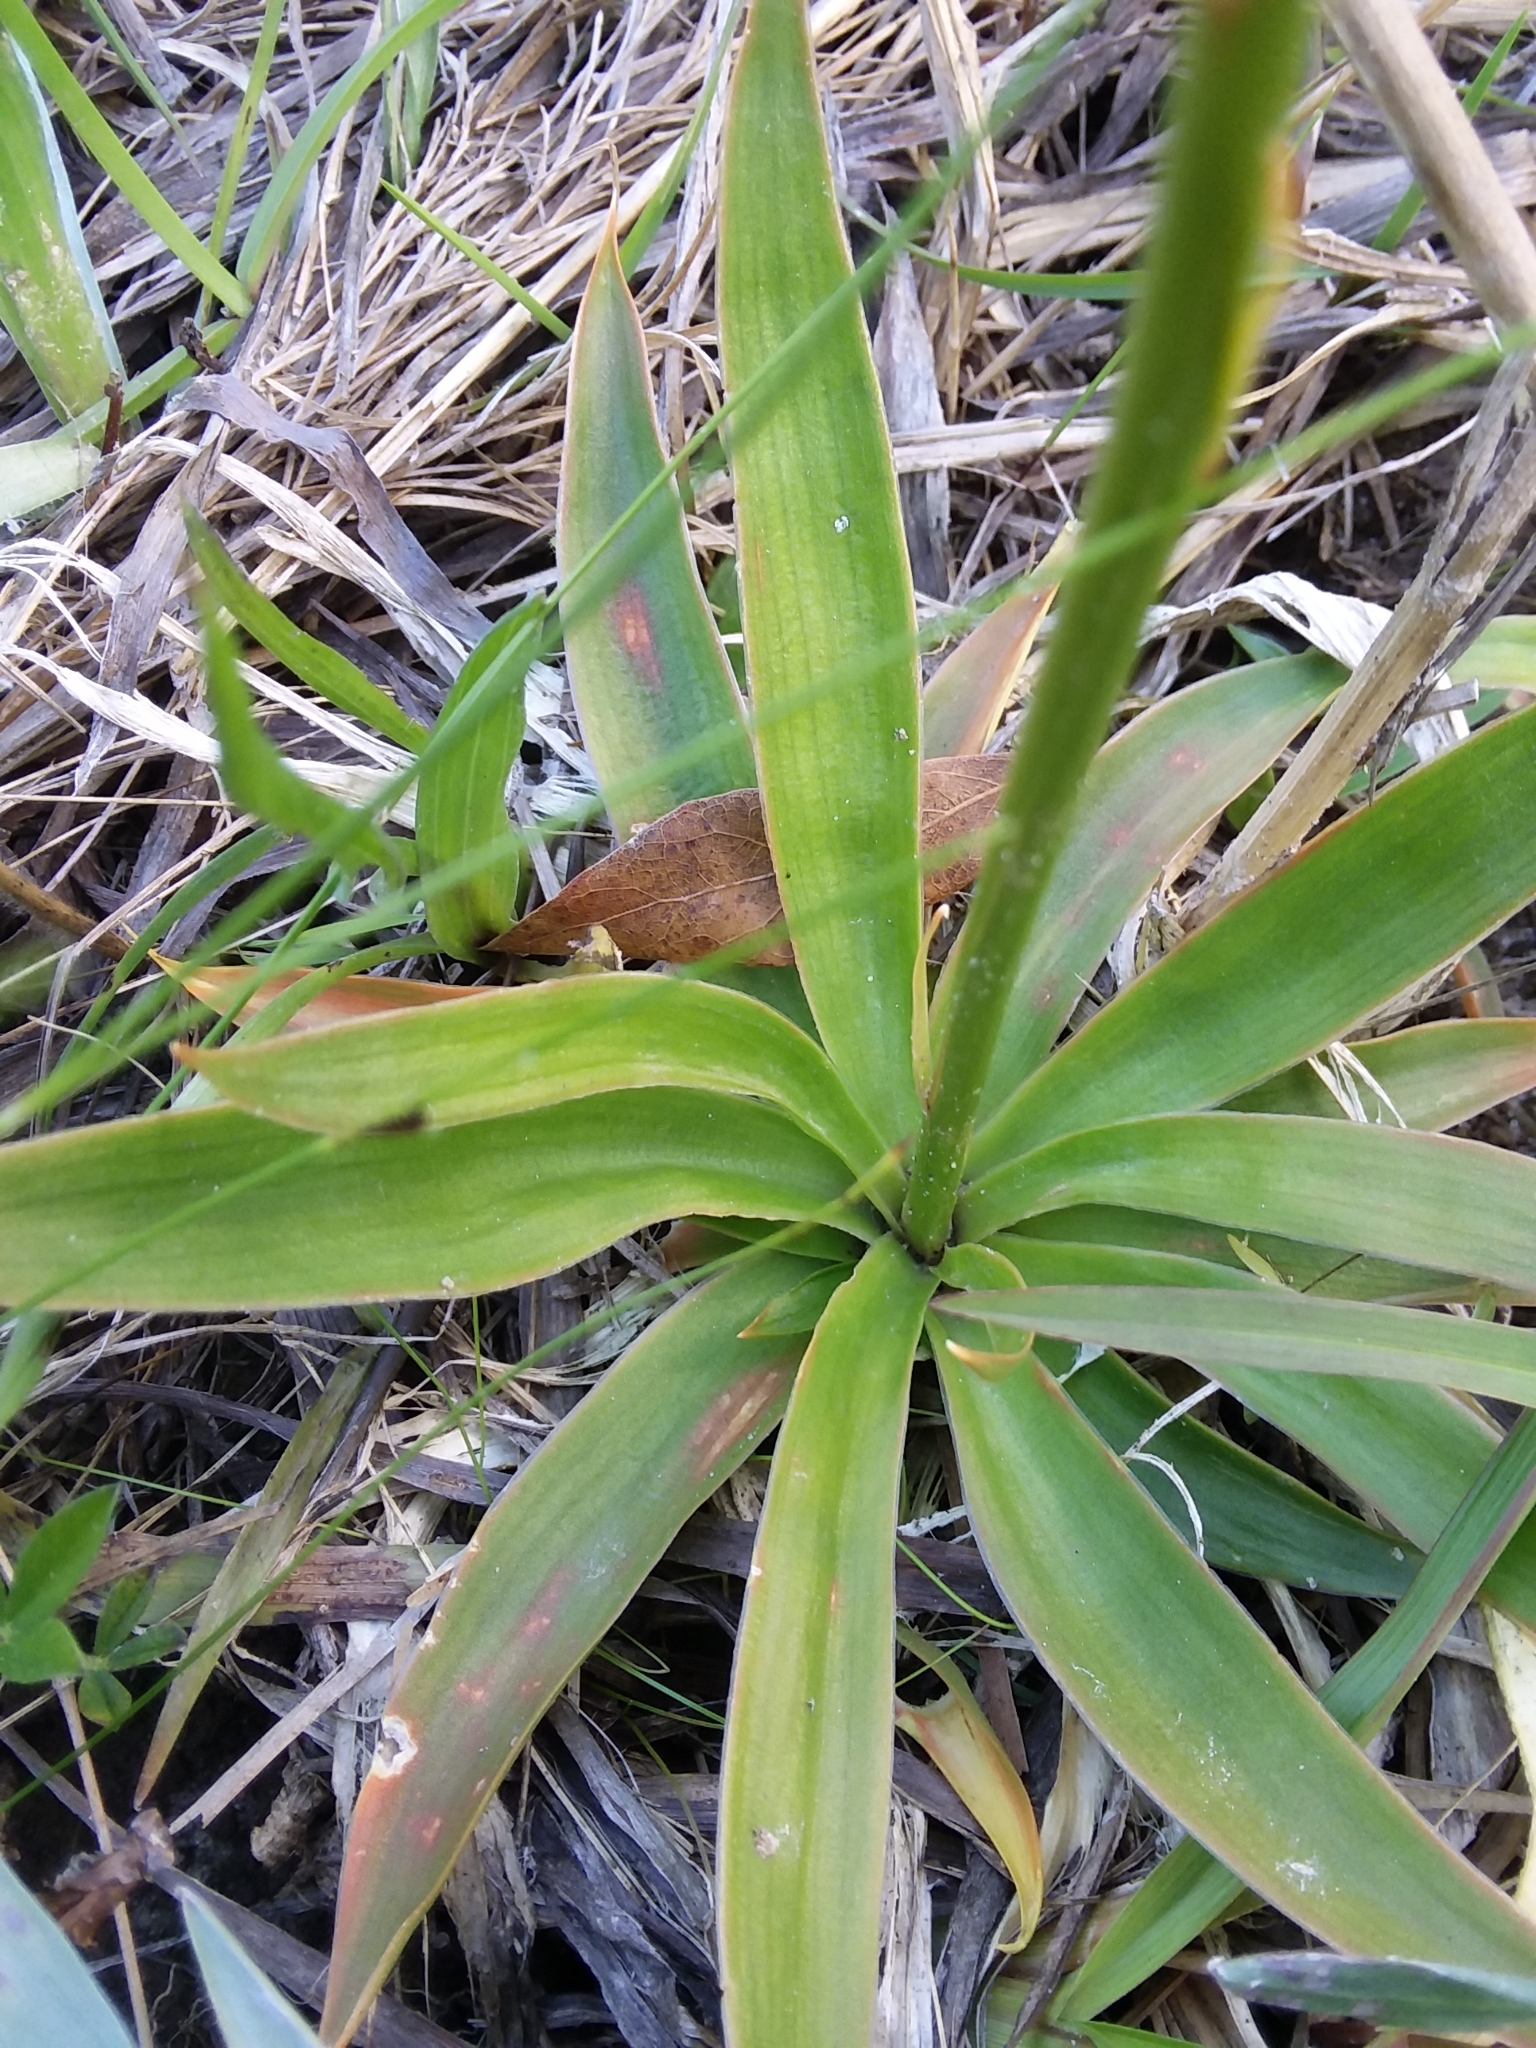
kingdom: Plantae
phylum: Tracheophyta
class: Liliopsida
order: Dioscoreales
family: Nartheciaceae
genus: Aletris
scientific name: Aletris farinosa
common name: Colicroot
